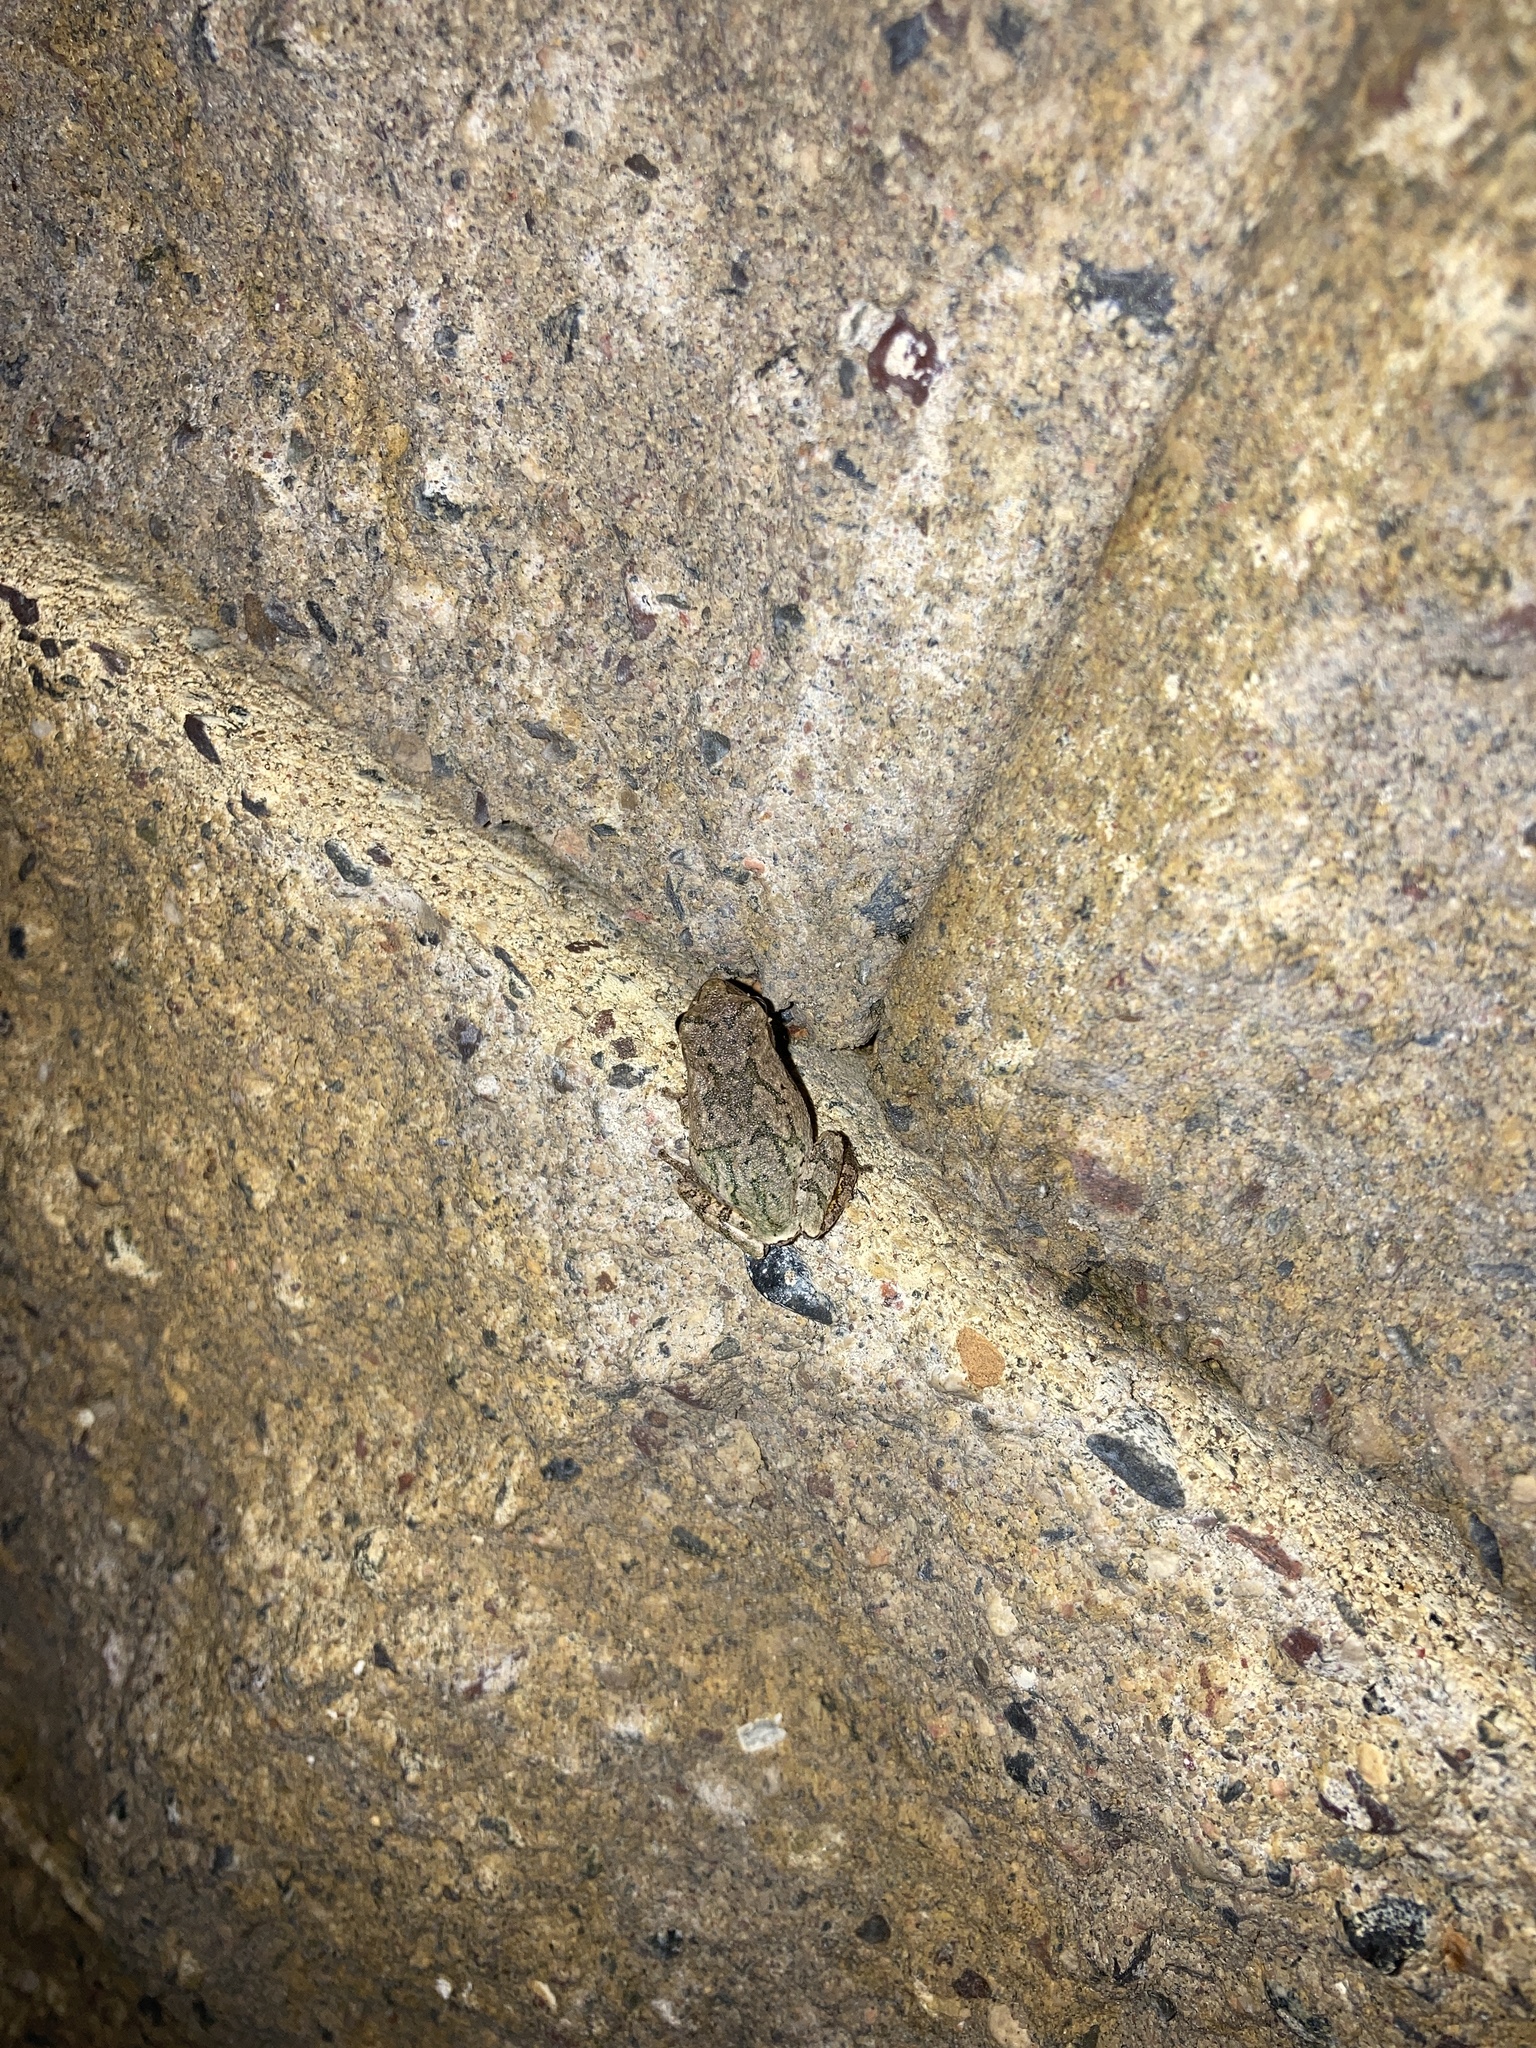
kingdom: Animalia
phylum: Chordata
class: Amphibia
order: Anura
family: Hylidae
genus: Hyla
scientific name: Hyla
